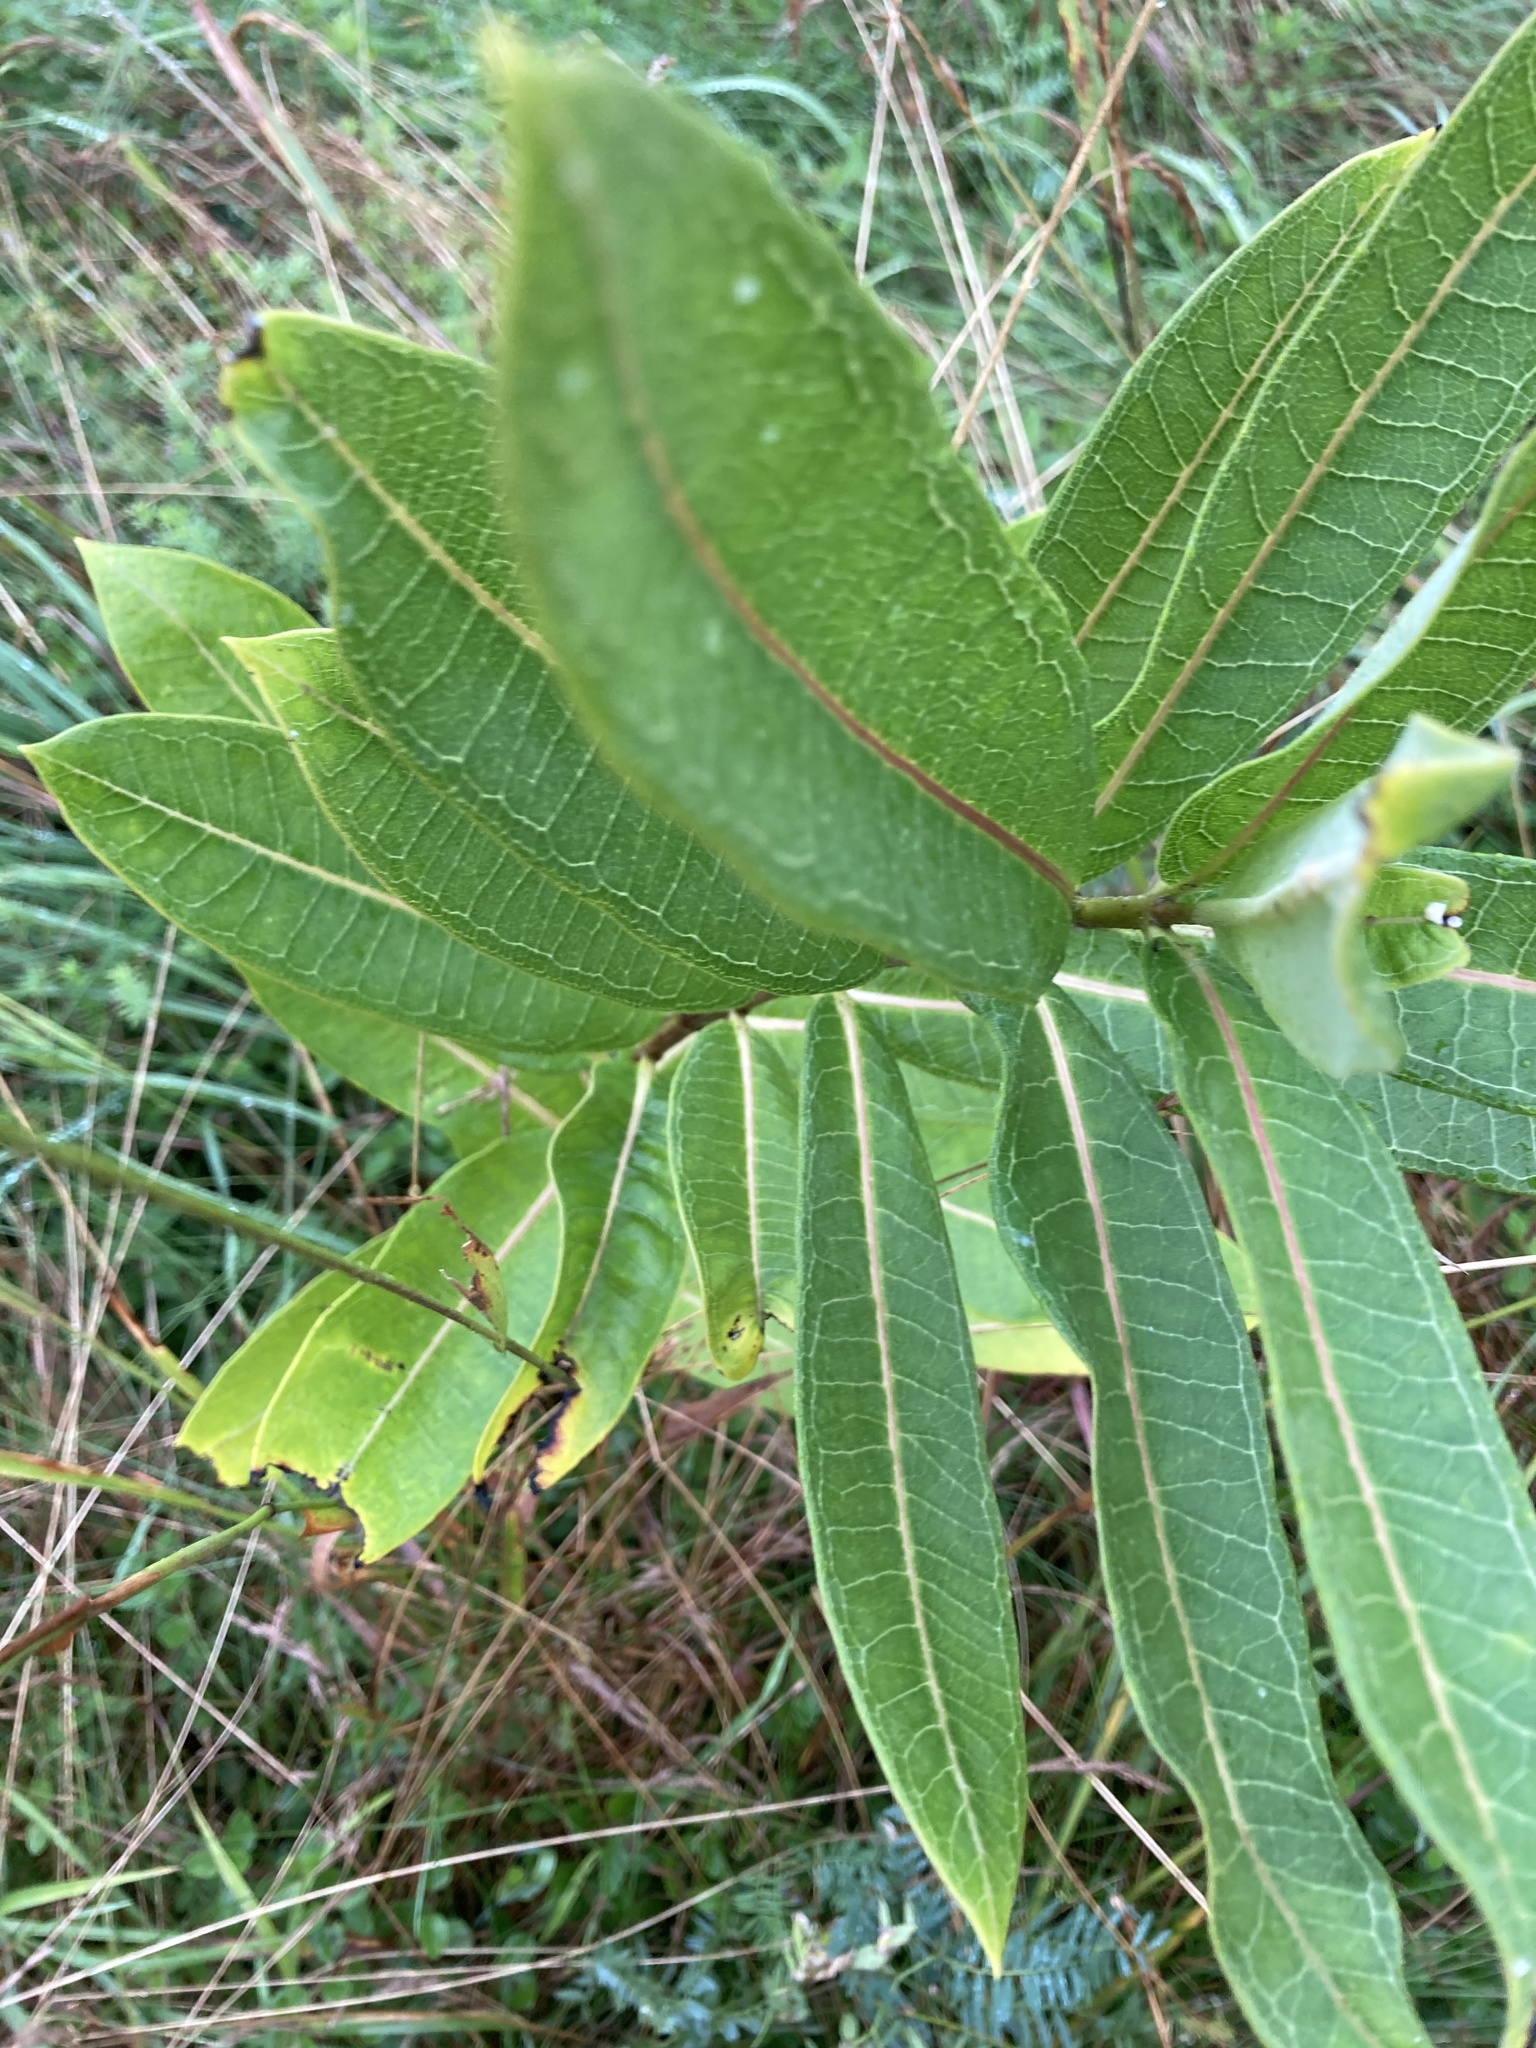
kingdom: Plantae
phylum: Tracheophyta
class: Magnoliopsida
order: Gentianales
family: Apocynaceae
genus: Asclepias
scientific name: Asclepias syriaca
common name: Common milkweed
